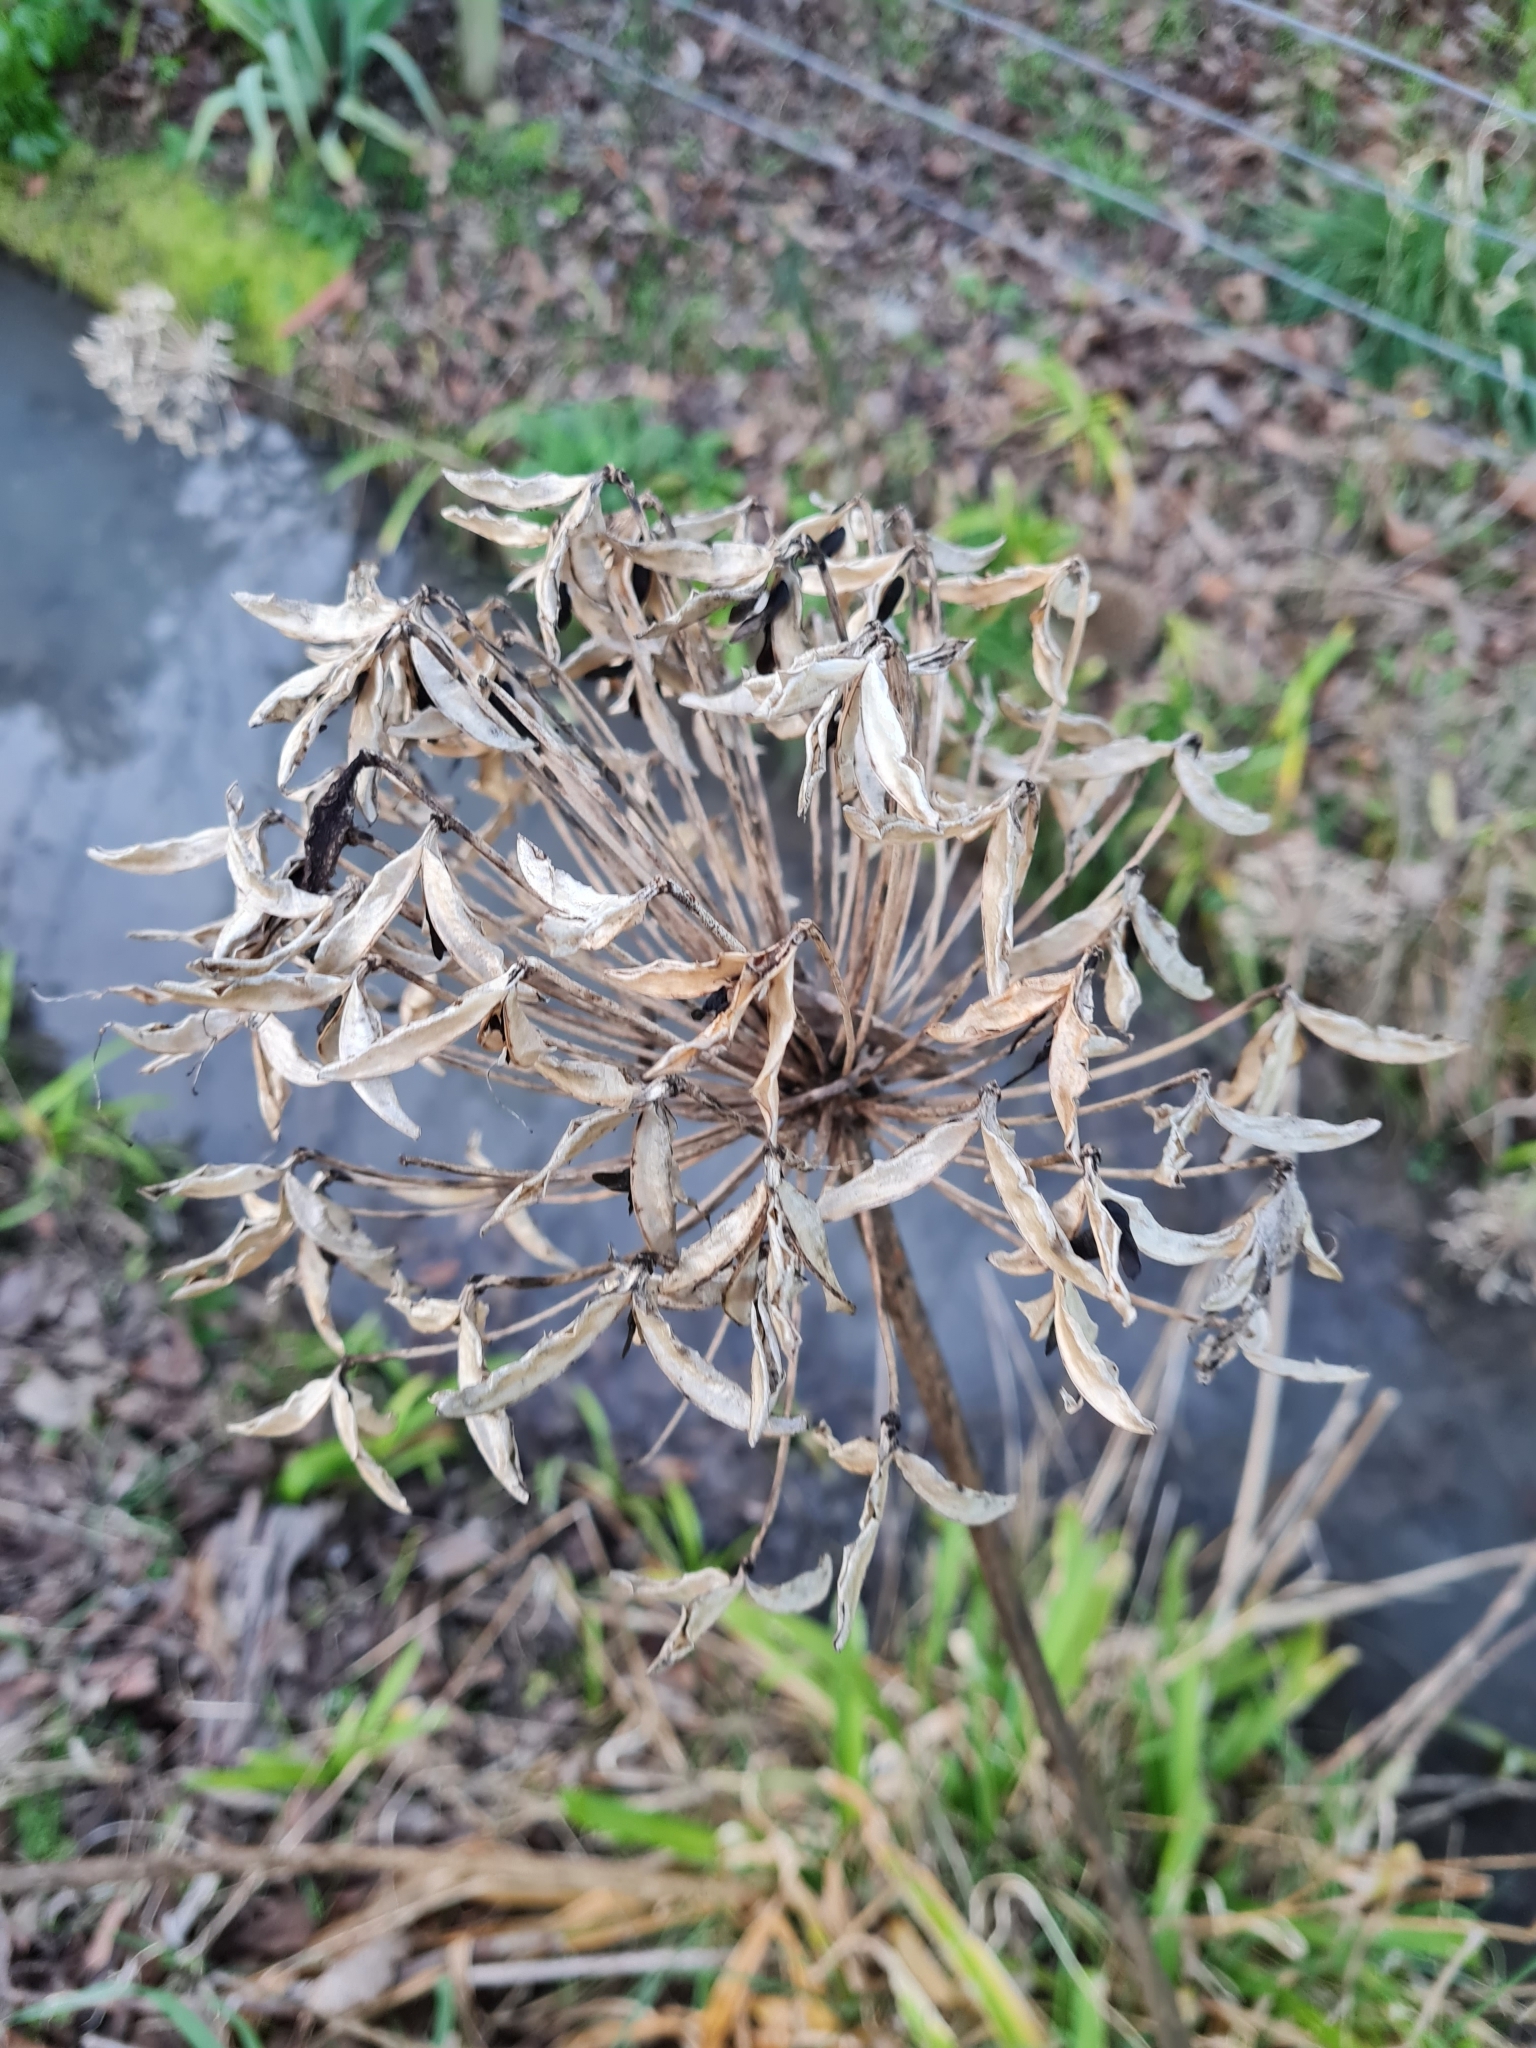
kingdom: Plantae
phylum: Tracheophyta
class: Liliopsida
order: Asparagales
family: Amaryllidaceae
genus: Agapanthus
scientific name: Agapanthus praecox
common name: African-lily
